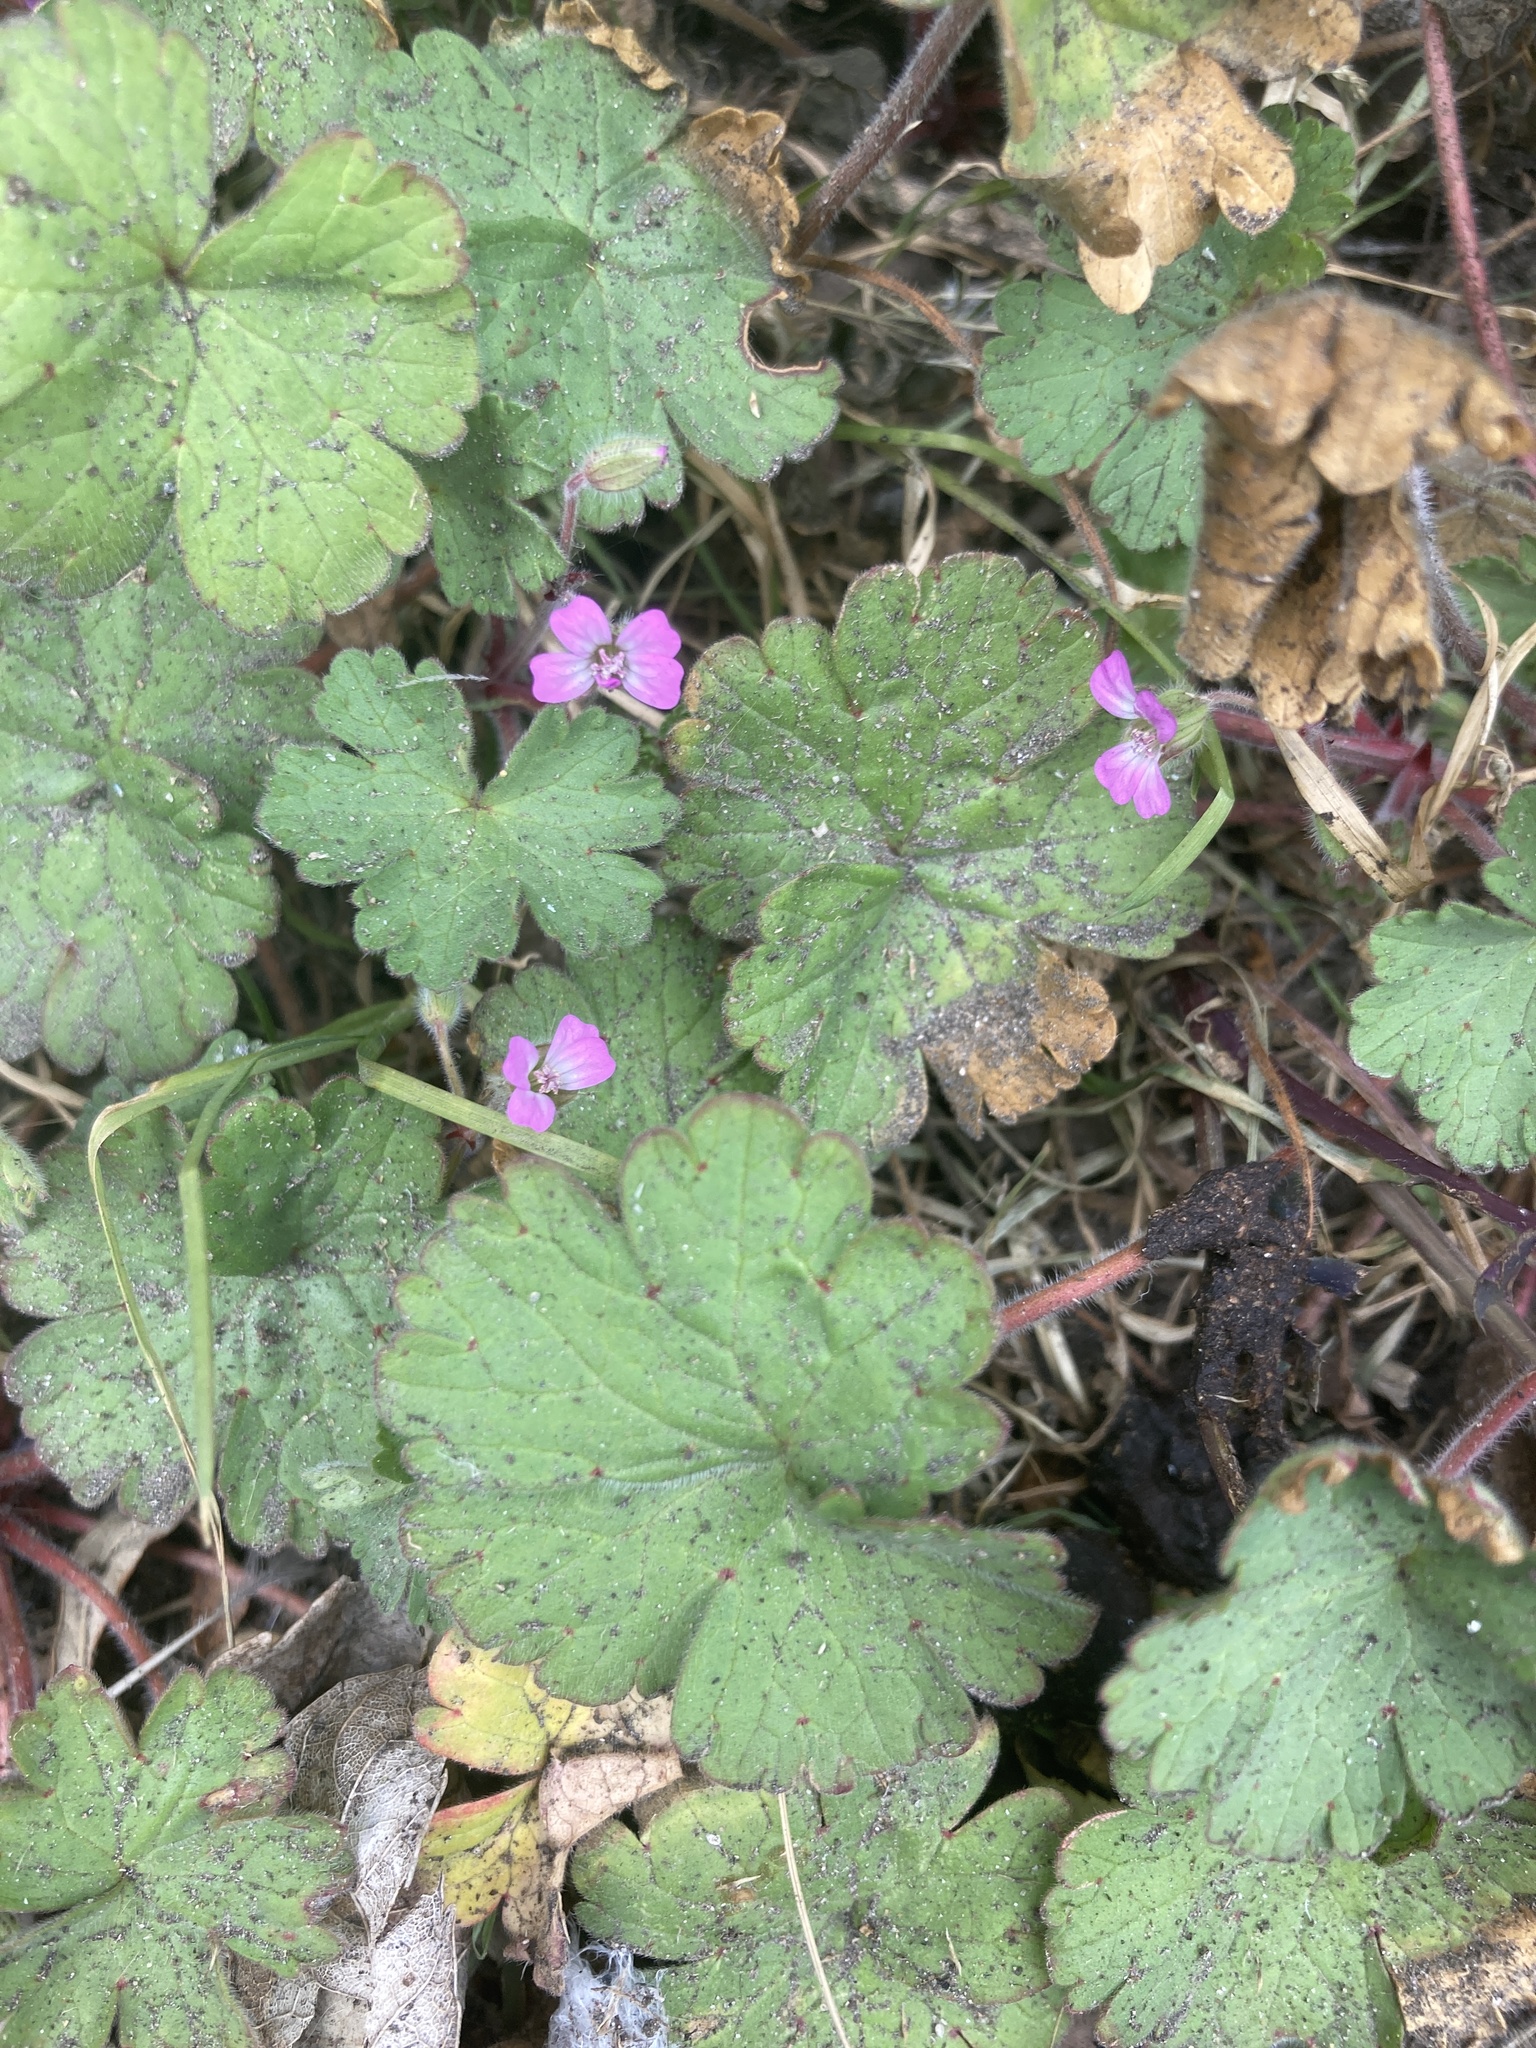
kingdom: Plantae
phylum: Tracheophyta
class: Magnoliopsida
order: Geraniales
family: Geraniaceae
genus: Geranium
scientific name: Geranium rotundifolium
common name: Round-leaved crane's-bill
